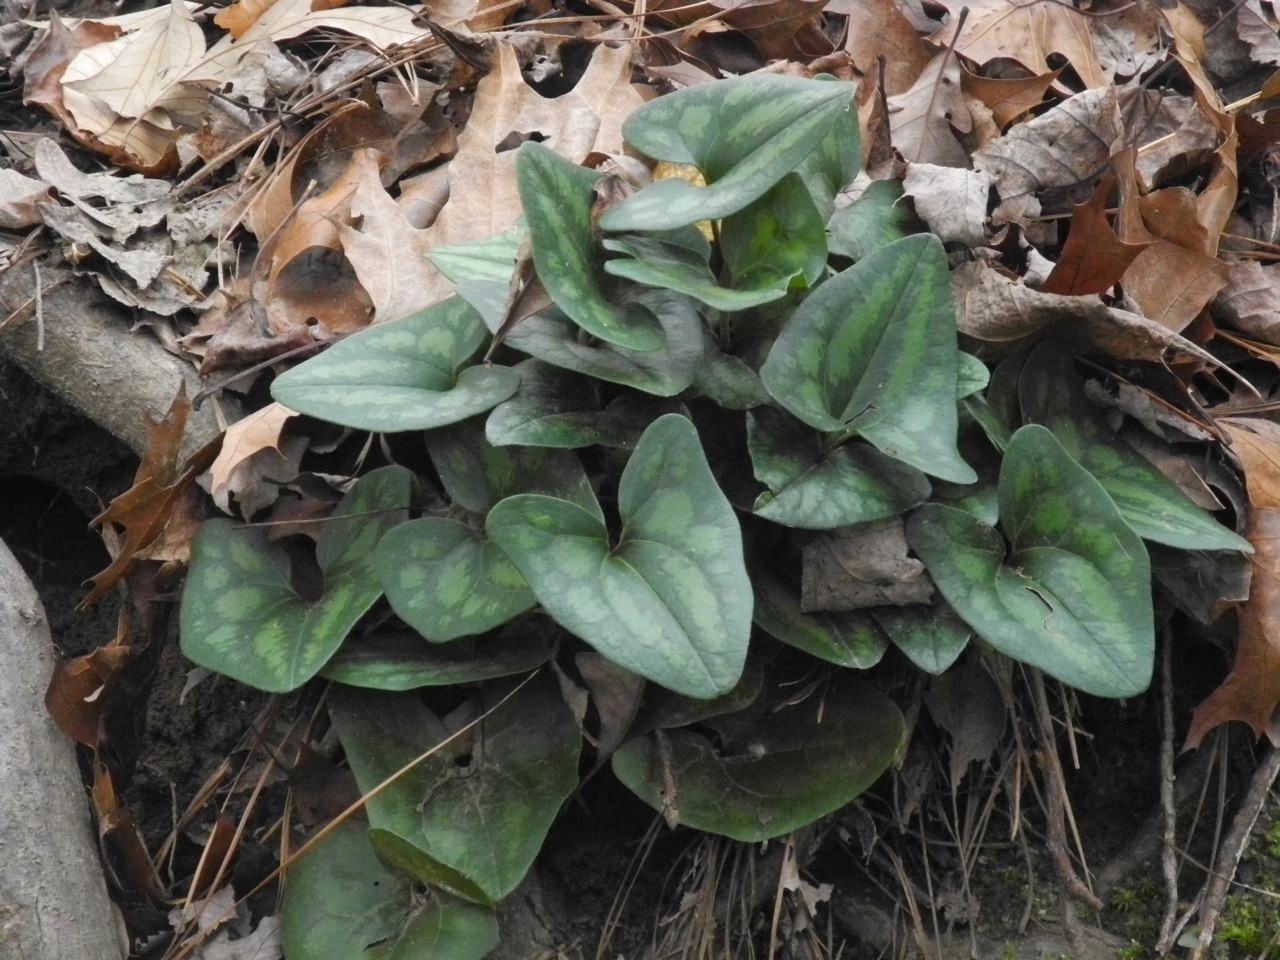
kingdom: Plantae
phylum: Tracheophyta
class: Magnoliopsida
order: Piperales
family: Aristolochiaceae
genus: Hexastylis
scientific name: Hexastylis arifolia
